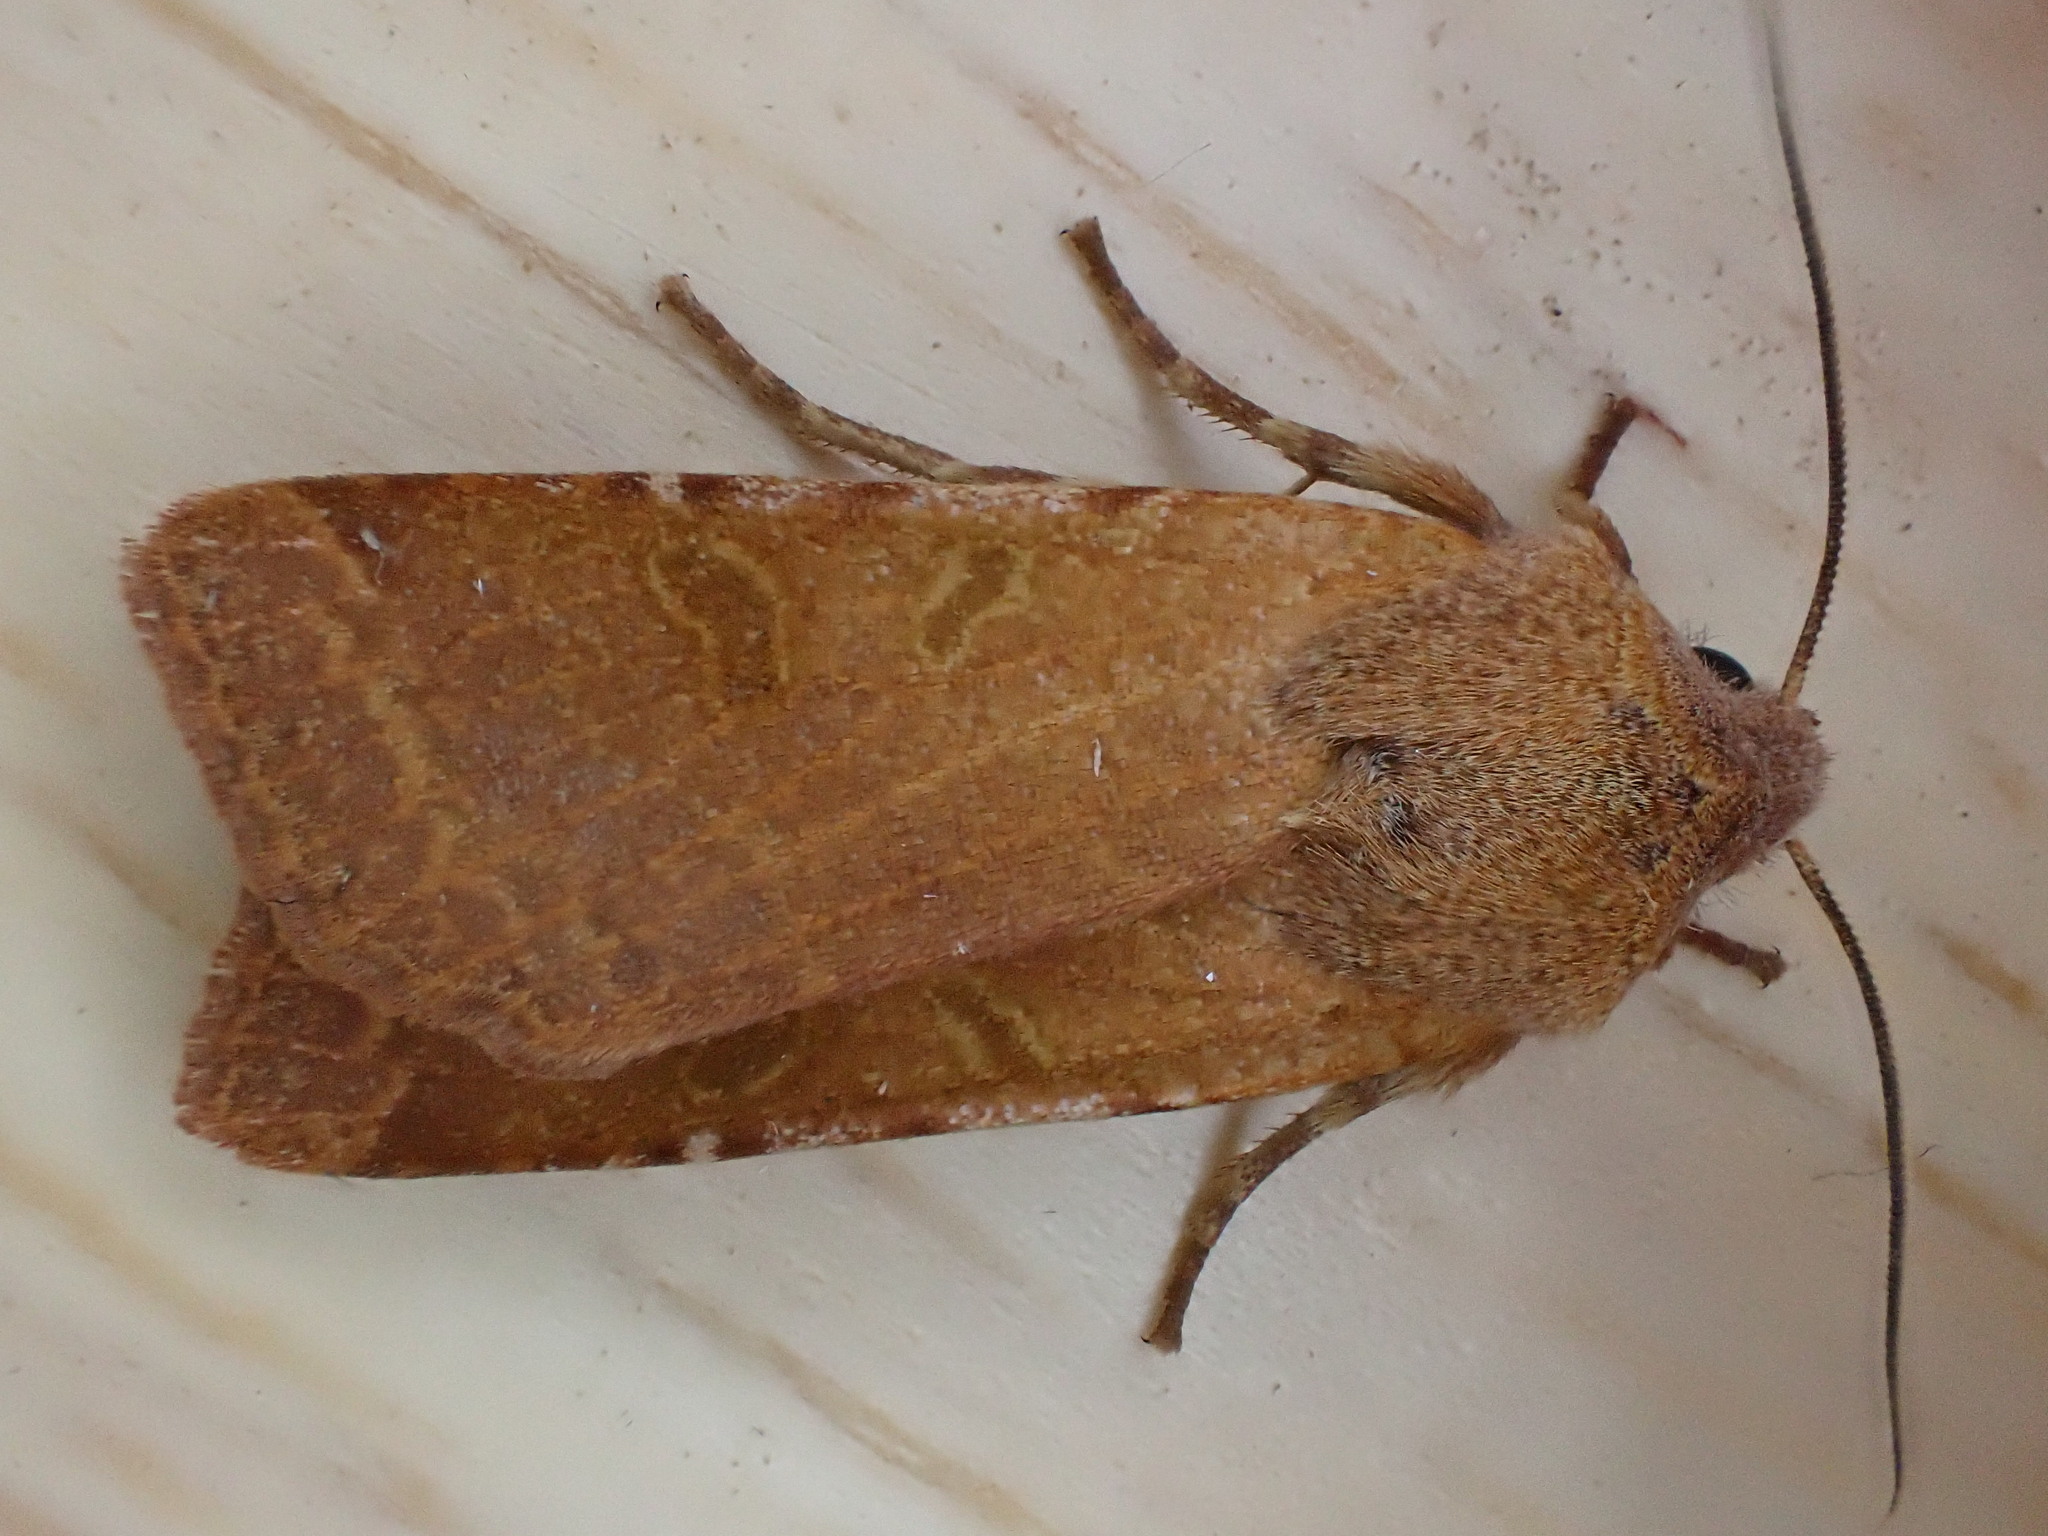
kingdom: Animalia
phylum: Arthropoda
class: Insecta
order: Lepidoptera
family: Noctuidae
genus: Agrochola
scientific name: Agrochola lychnidis
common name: Beaded chestnut
